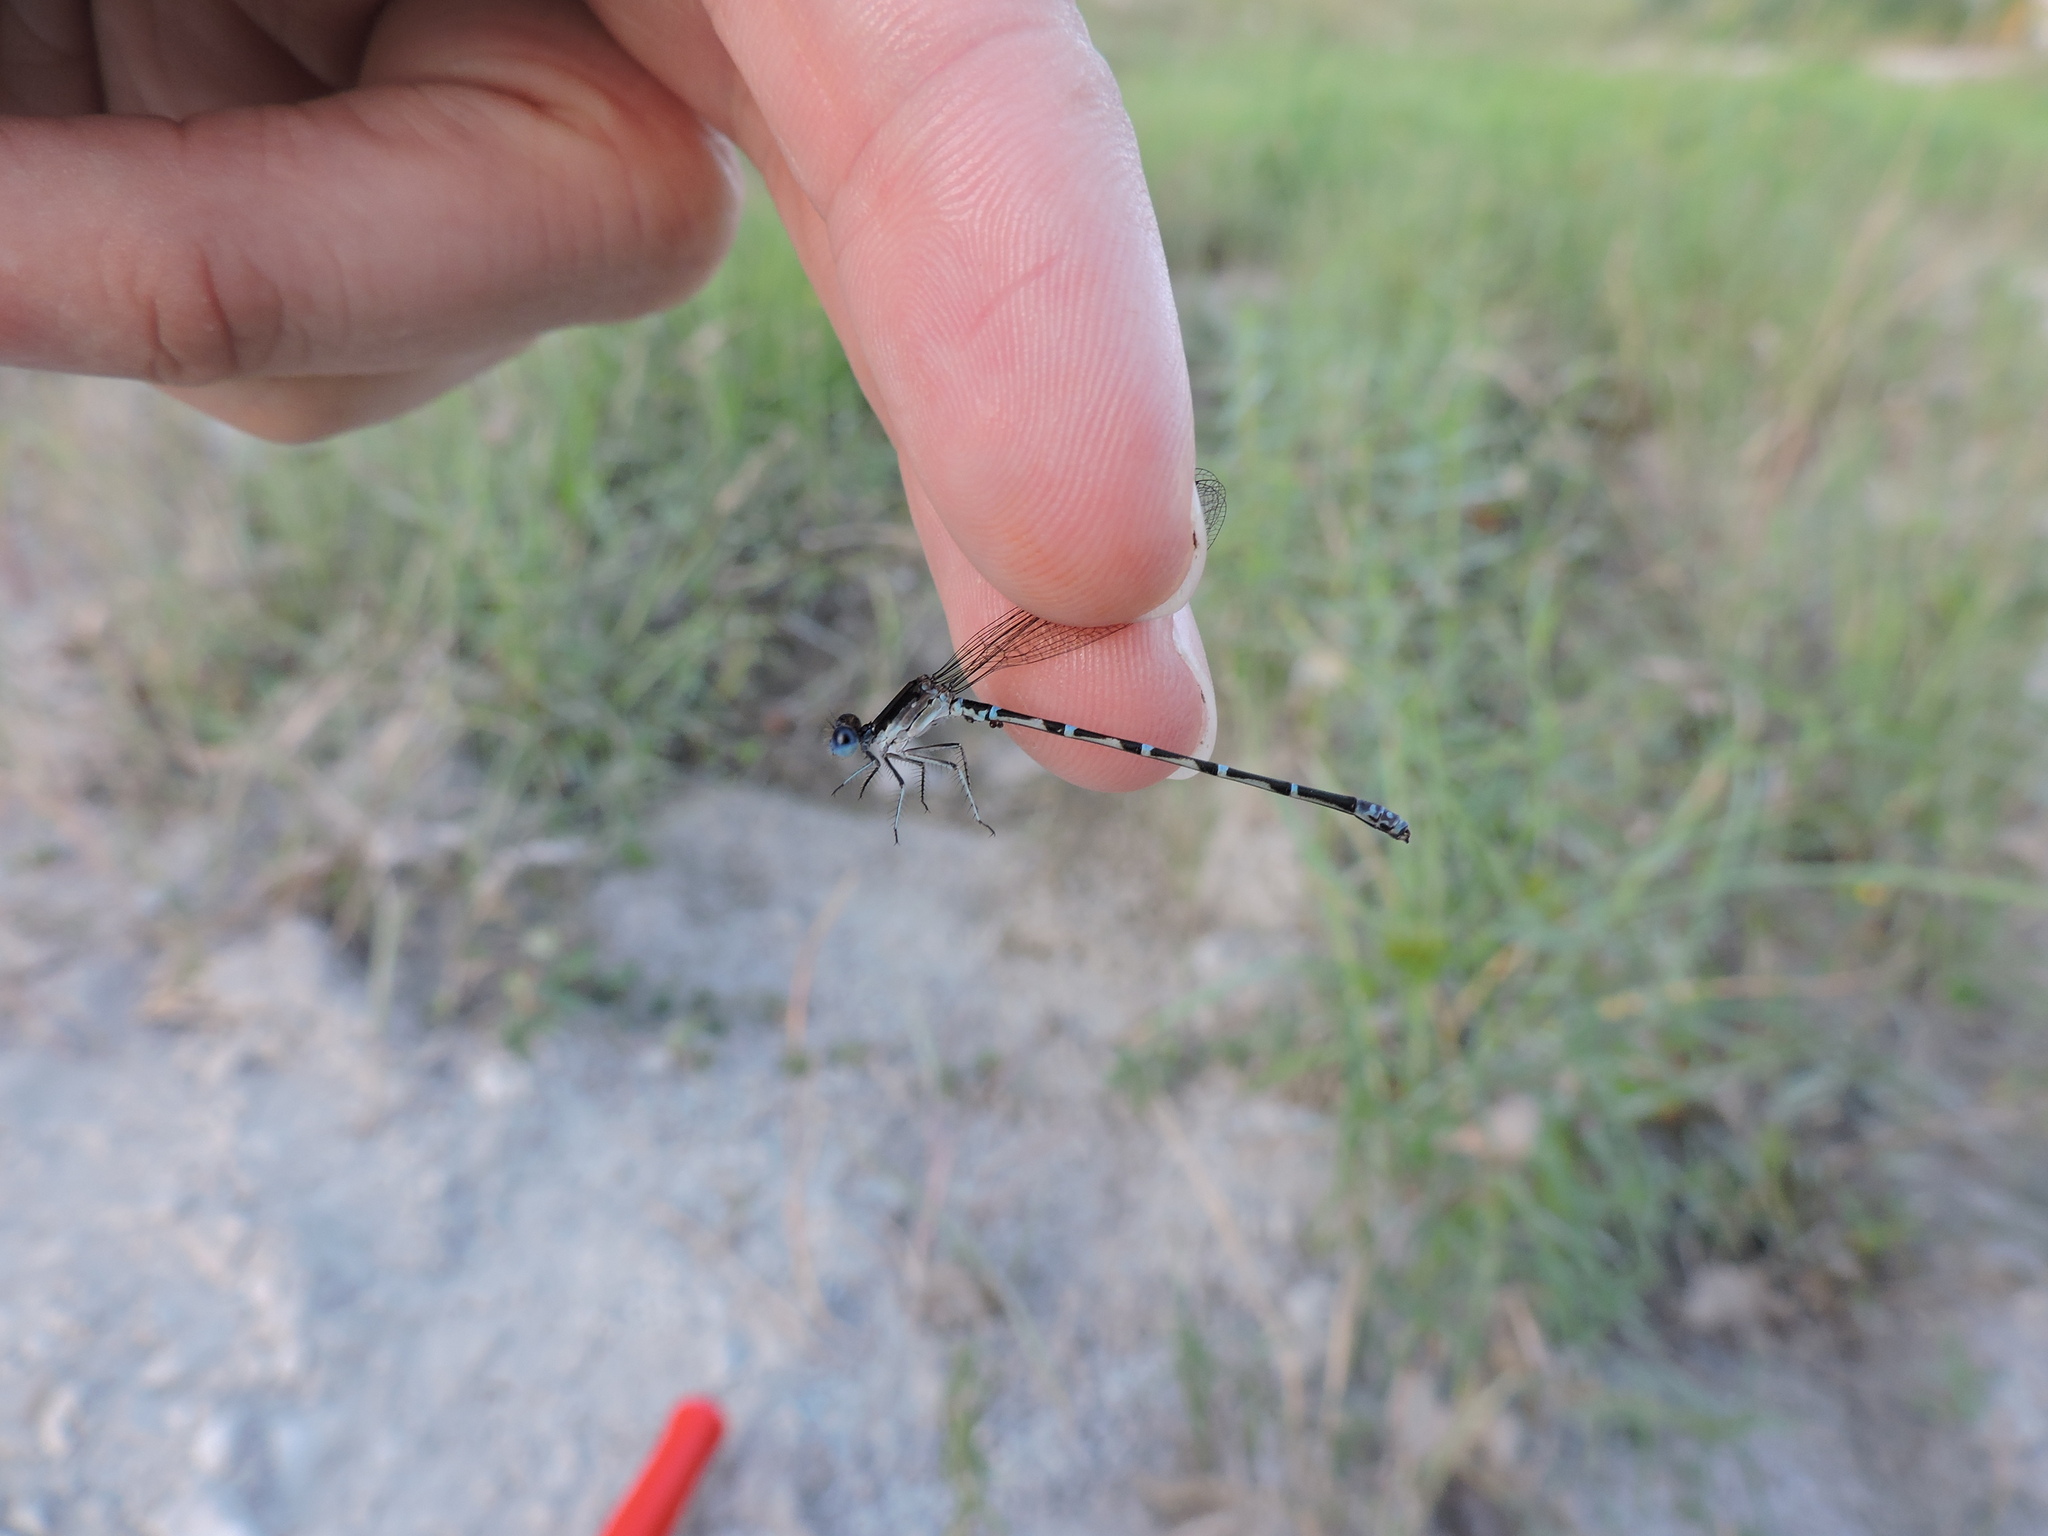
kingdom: Animalia
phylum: Arthropoda
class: Insecta
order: Odonata
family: Coenagrionidae
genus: Argia
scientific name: Argia sedula
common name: Blue-ringed dancer
